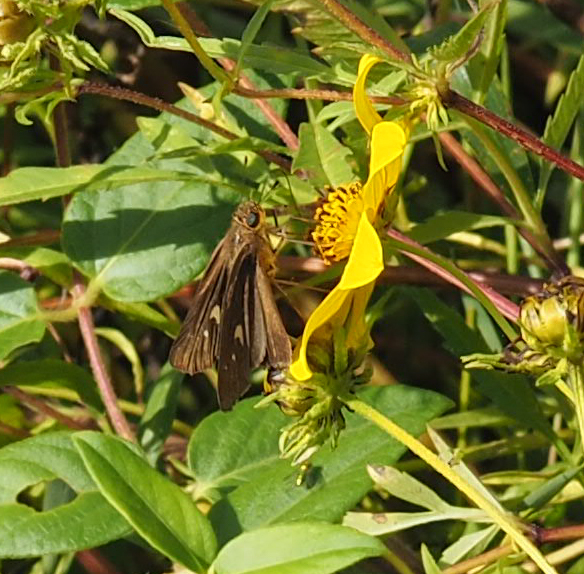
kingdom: Animalia
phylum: Arthropoda
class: Insecta
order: Lepidoptera
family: Hesperiidae
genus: Panoquina
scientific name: Panoquina ocola
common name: Ocola skipper
